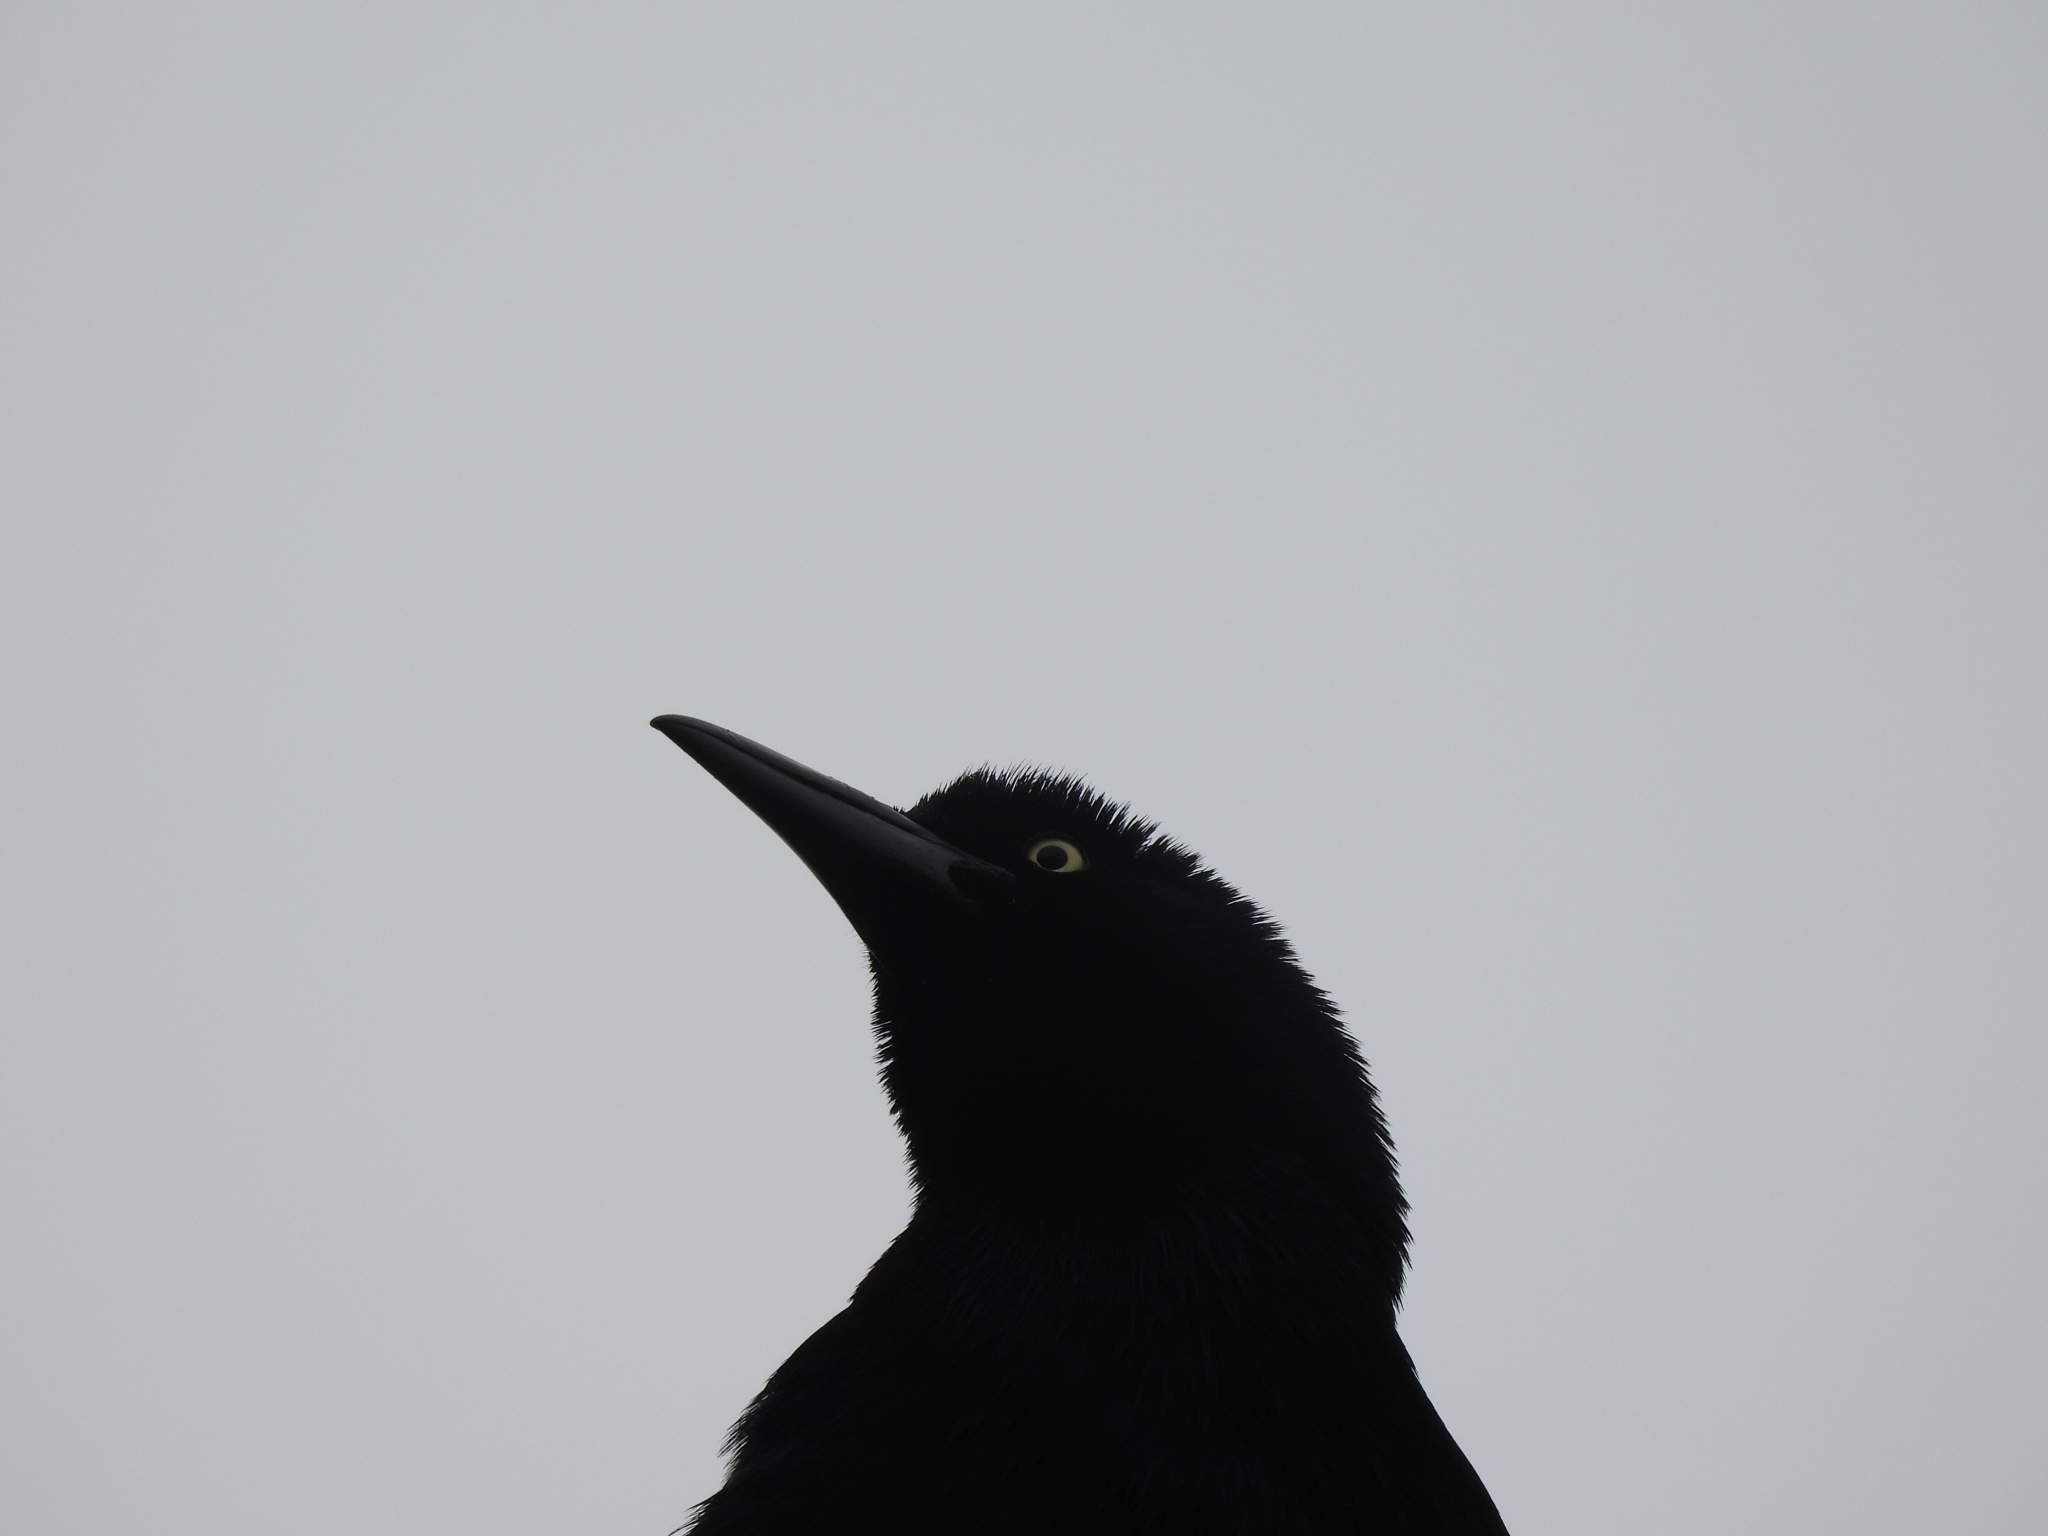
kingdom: Animalia
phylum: Chordata
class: Aves
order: Passeriformes
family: Icteridae
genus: Quiscalus
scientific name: Quiscalus mexicanus
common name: Great-tailed grackle
